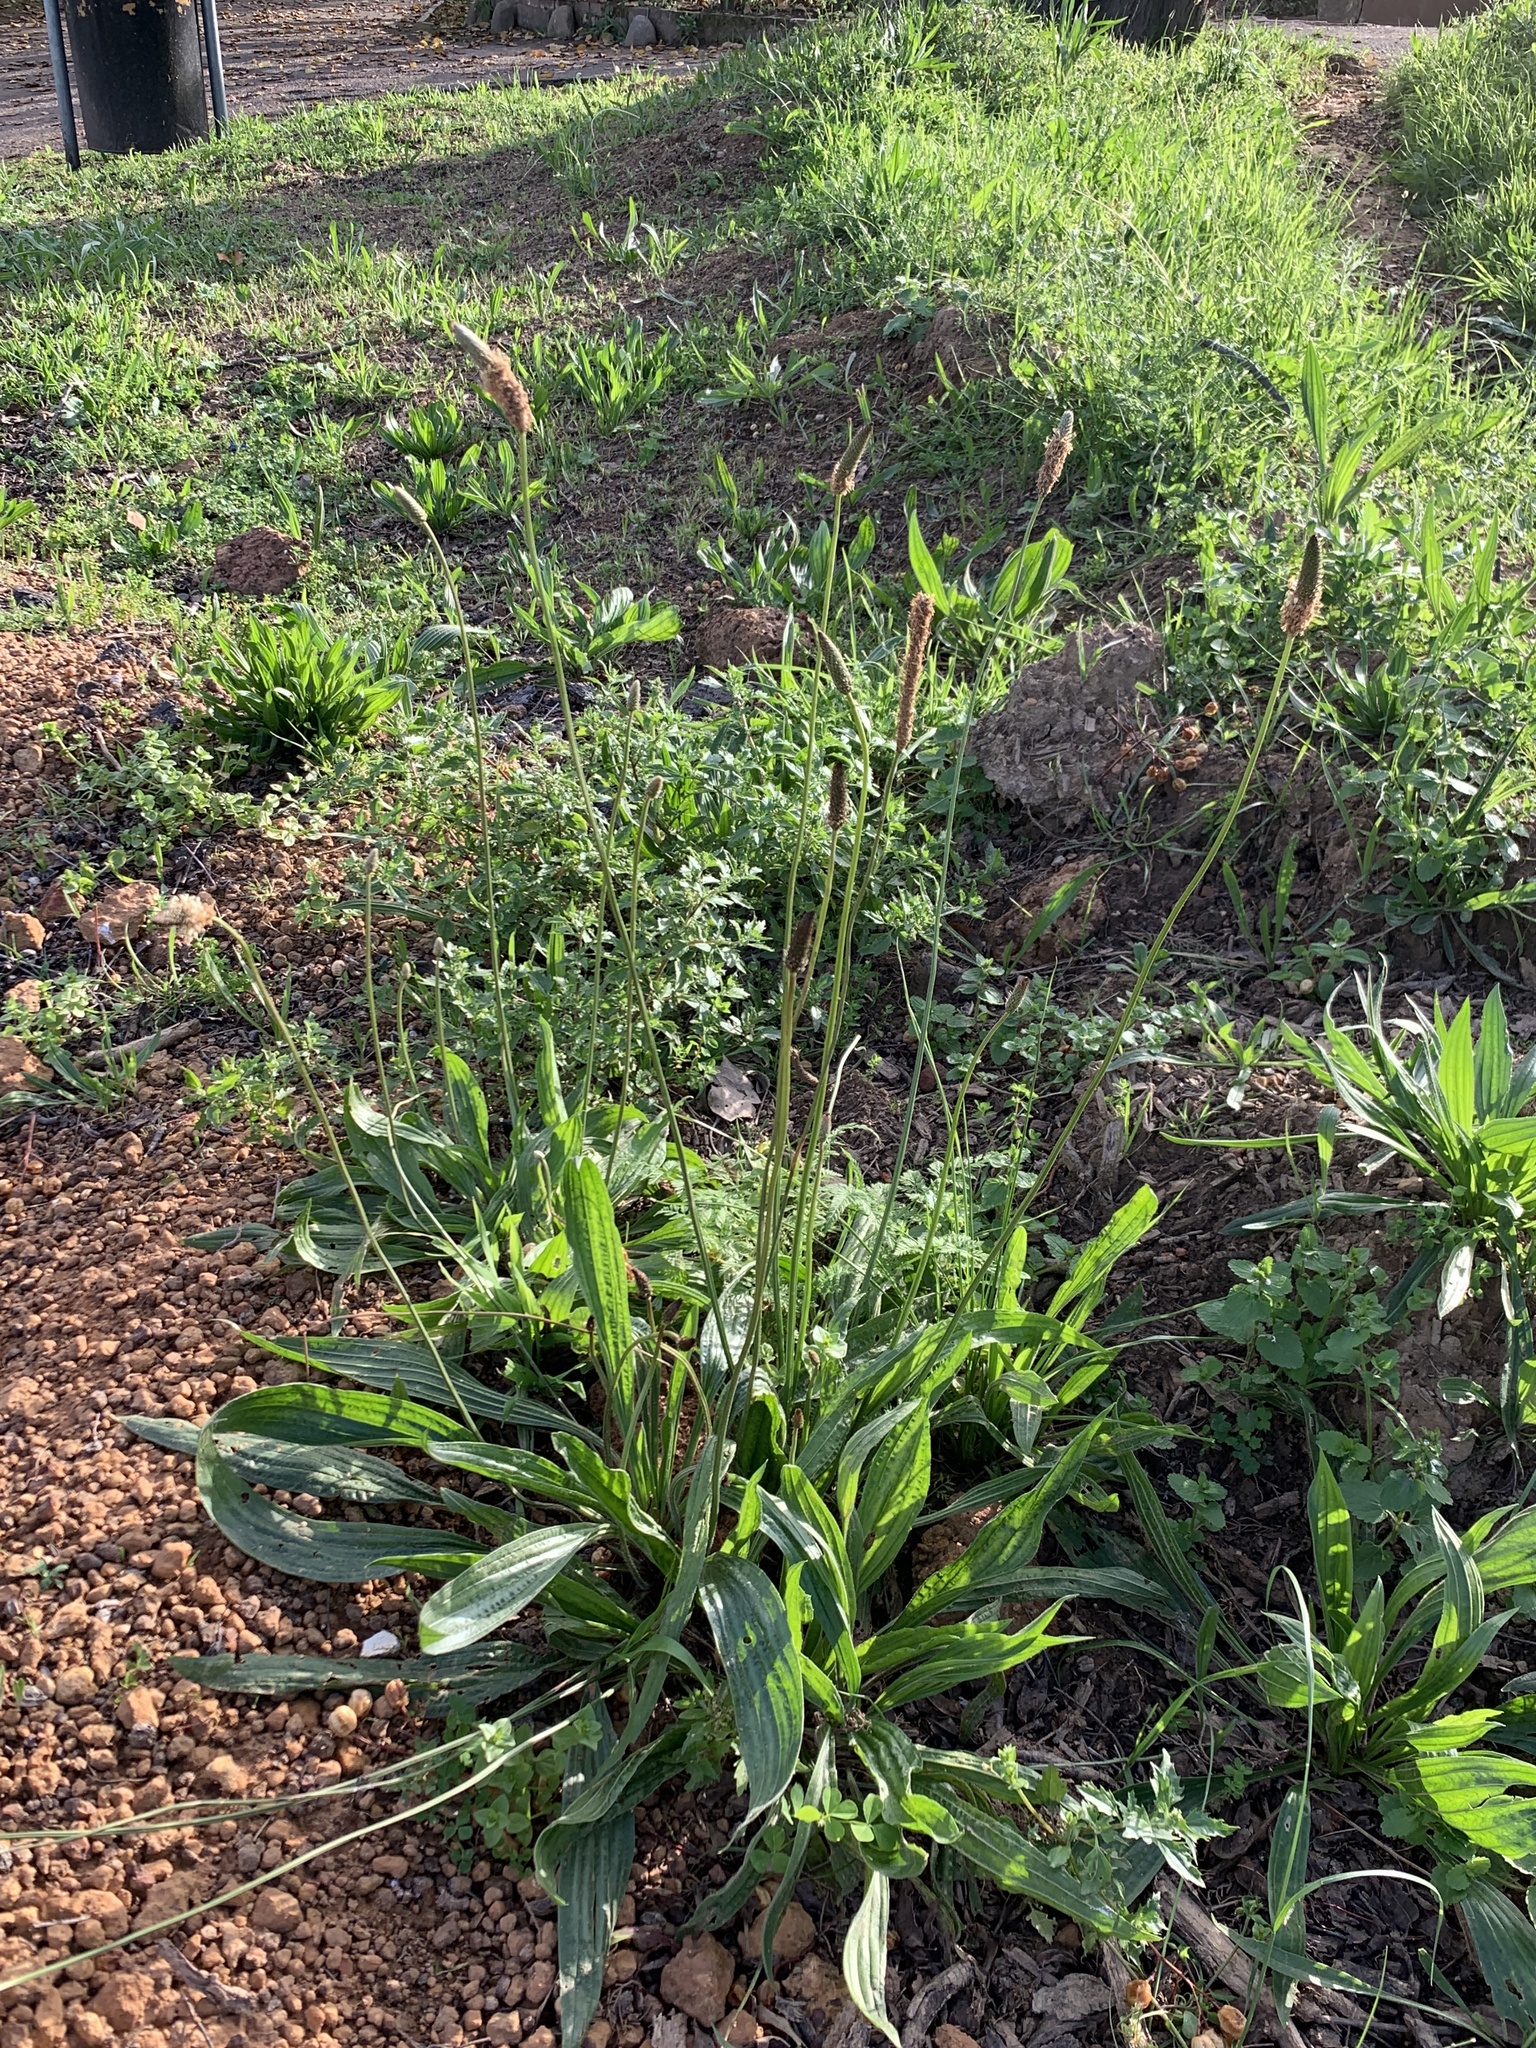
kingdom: Plantae
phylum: Tracheophyta
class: Magnoliopsida
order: Lamiales
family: Plantaginaceae
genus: Plantago
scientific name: Plantago lanceolata
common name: Ribwort plantain
